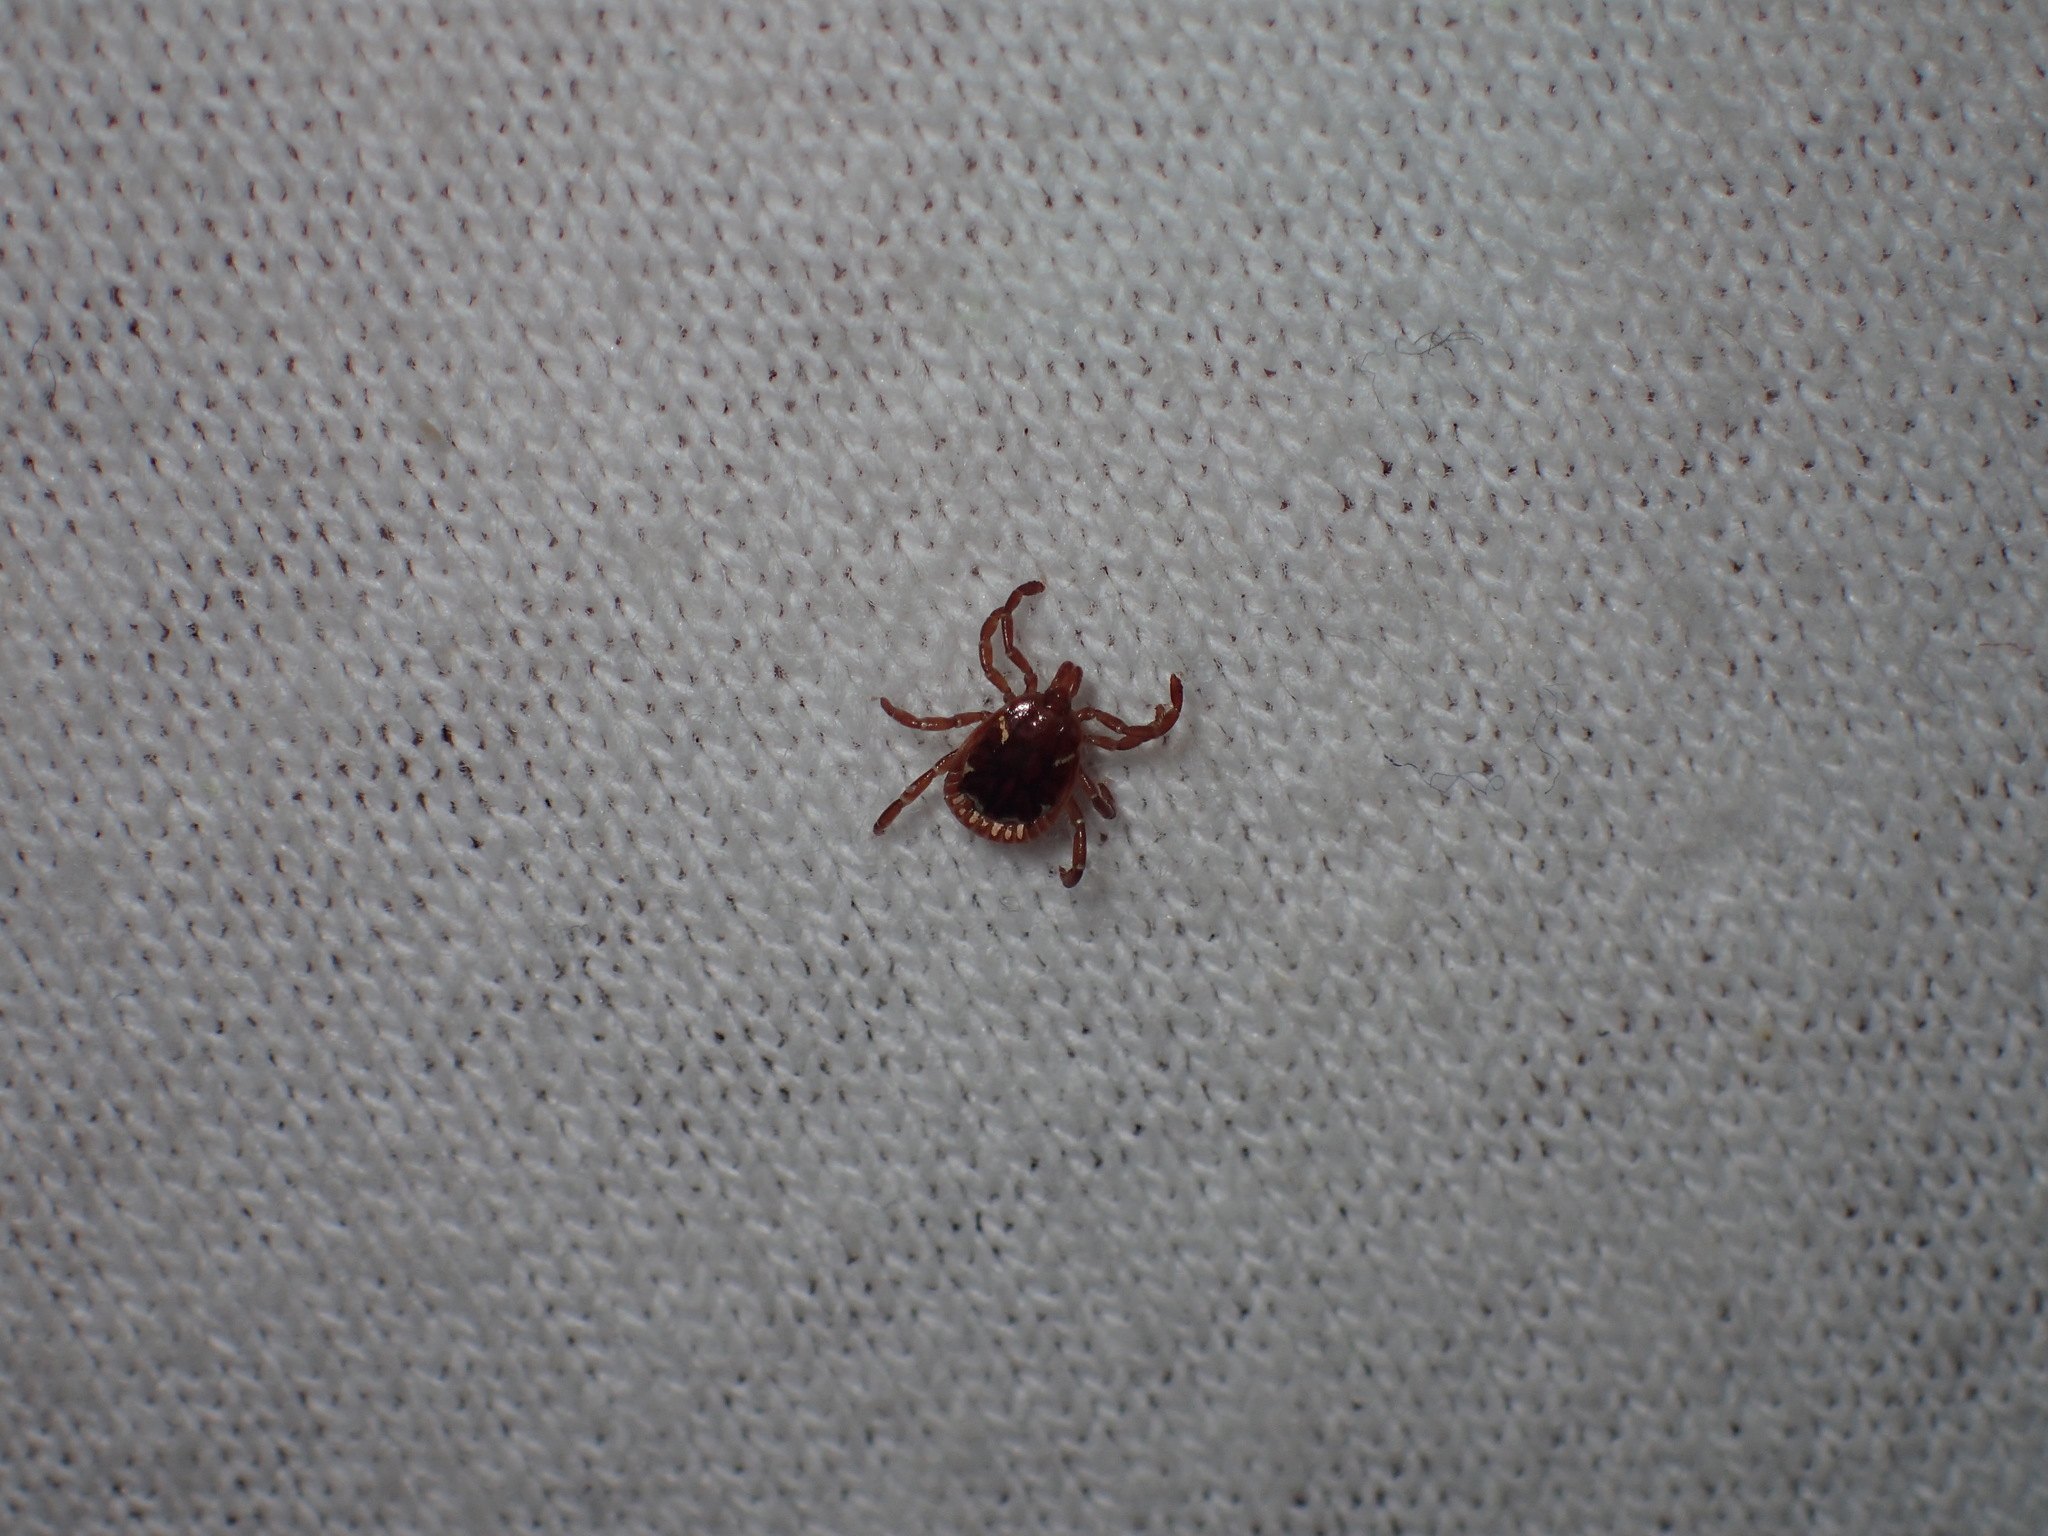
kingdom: Animalia
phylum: Arthropoda
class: Arachnida
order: Ixodida
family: Ixodidae
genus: Amblyomma
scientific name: Amblyomma americanum
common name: Lone star tick
